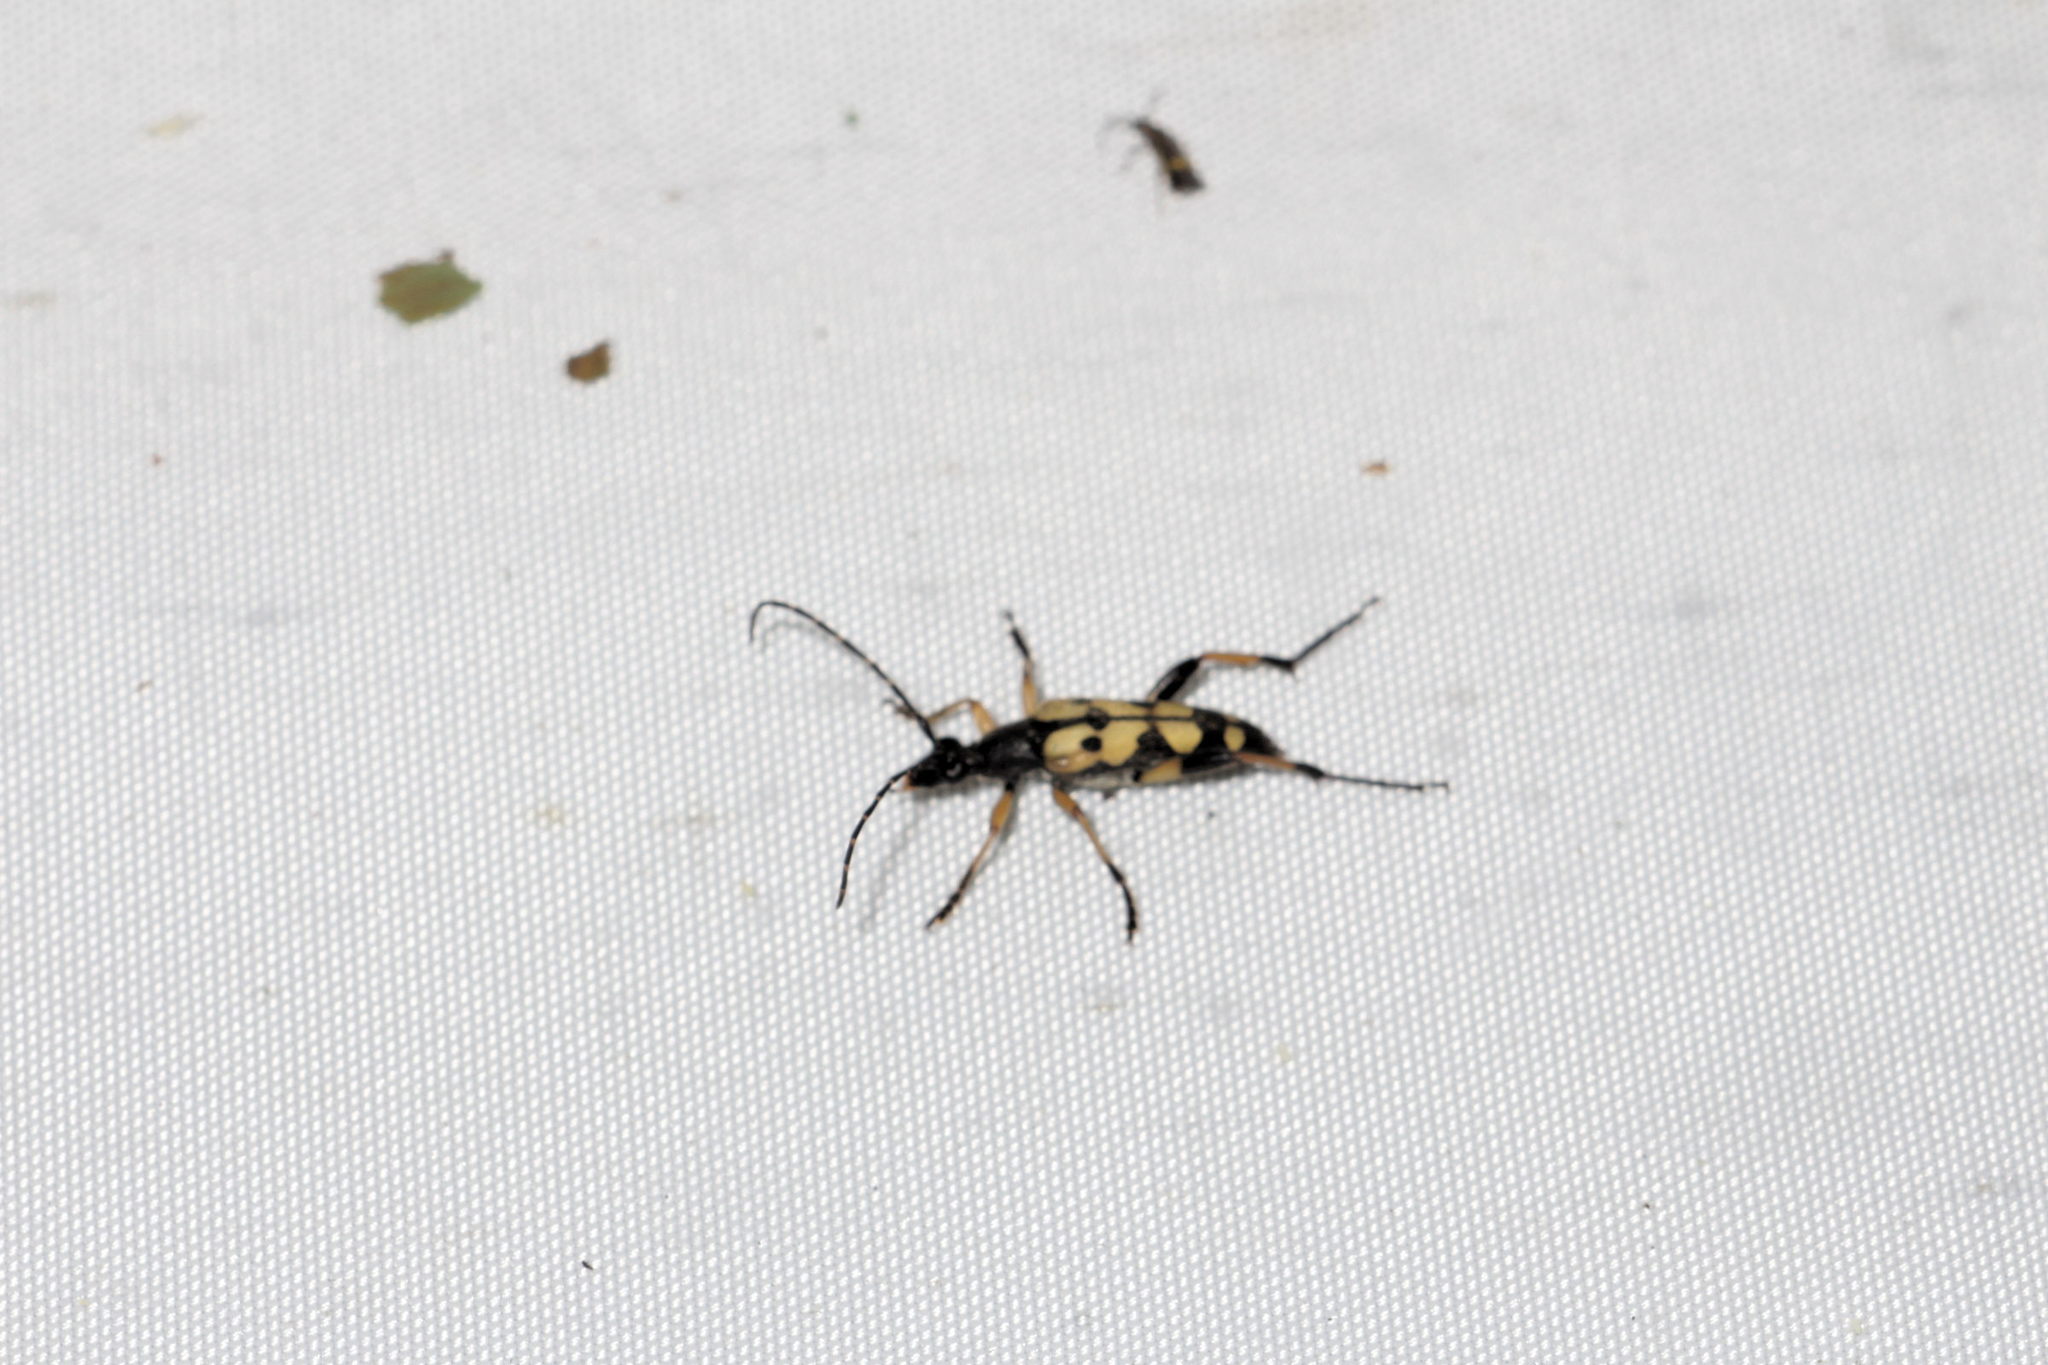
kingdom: Animalia
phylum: Arthropoda
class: Insecta
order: Coleoptera
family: Cerambycidae
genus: Rutpela
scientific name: Rutpela maculata
